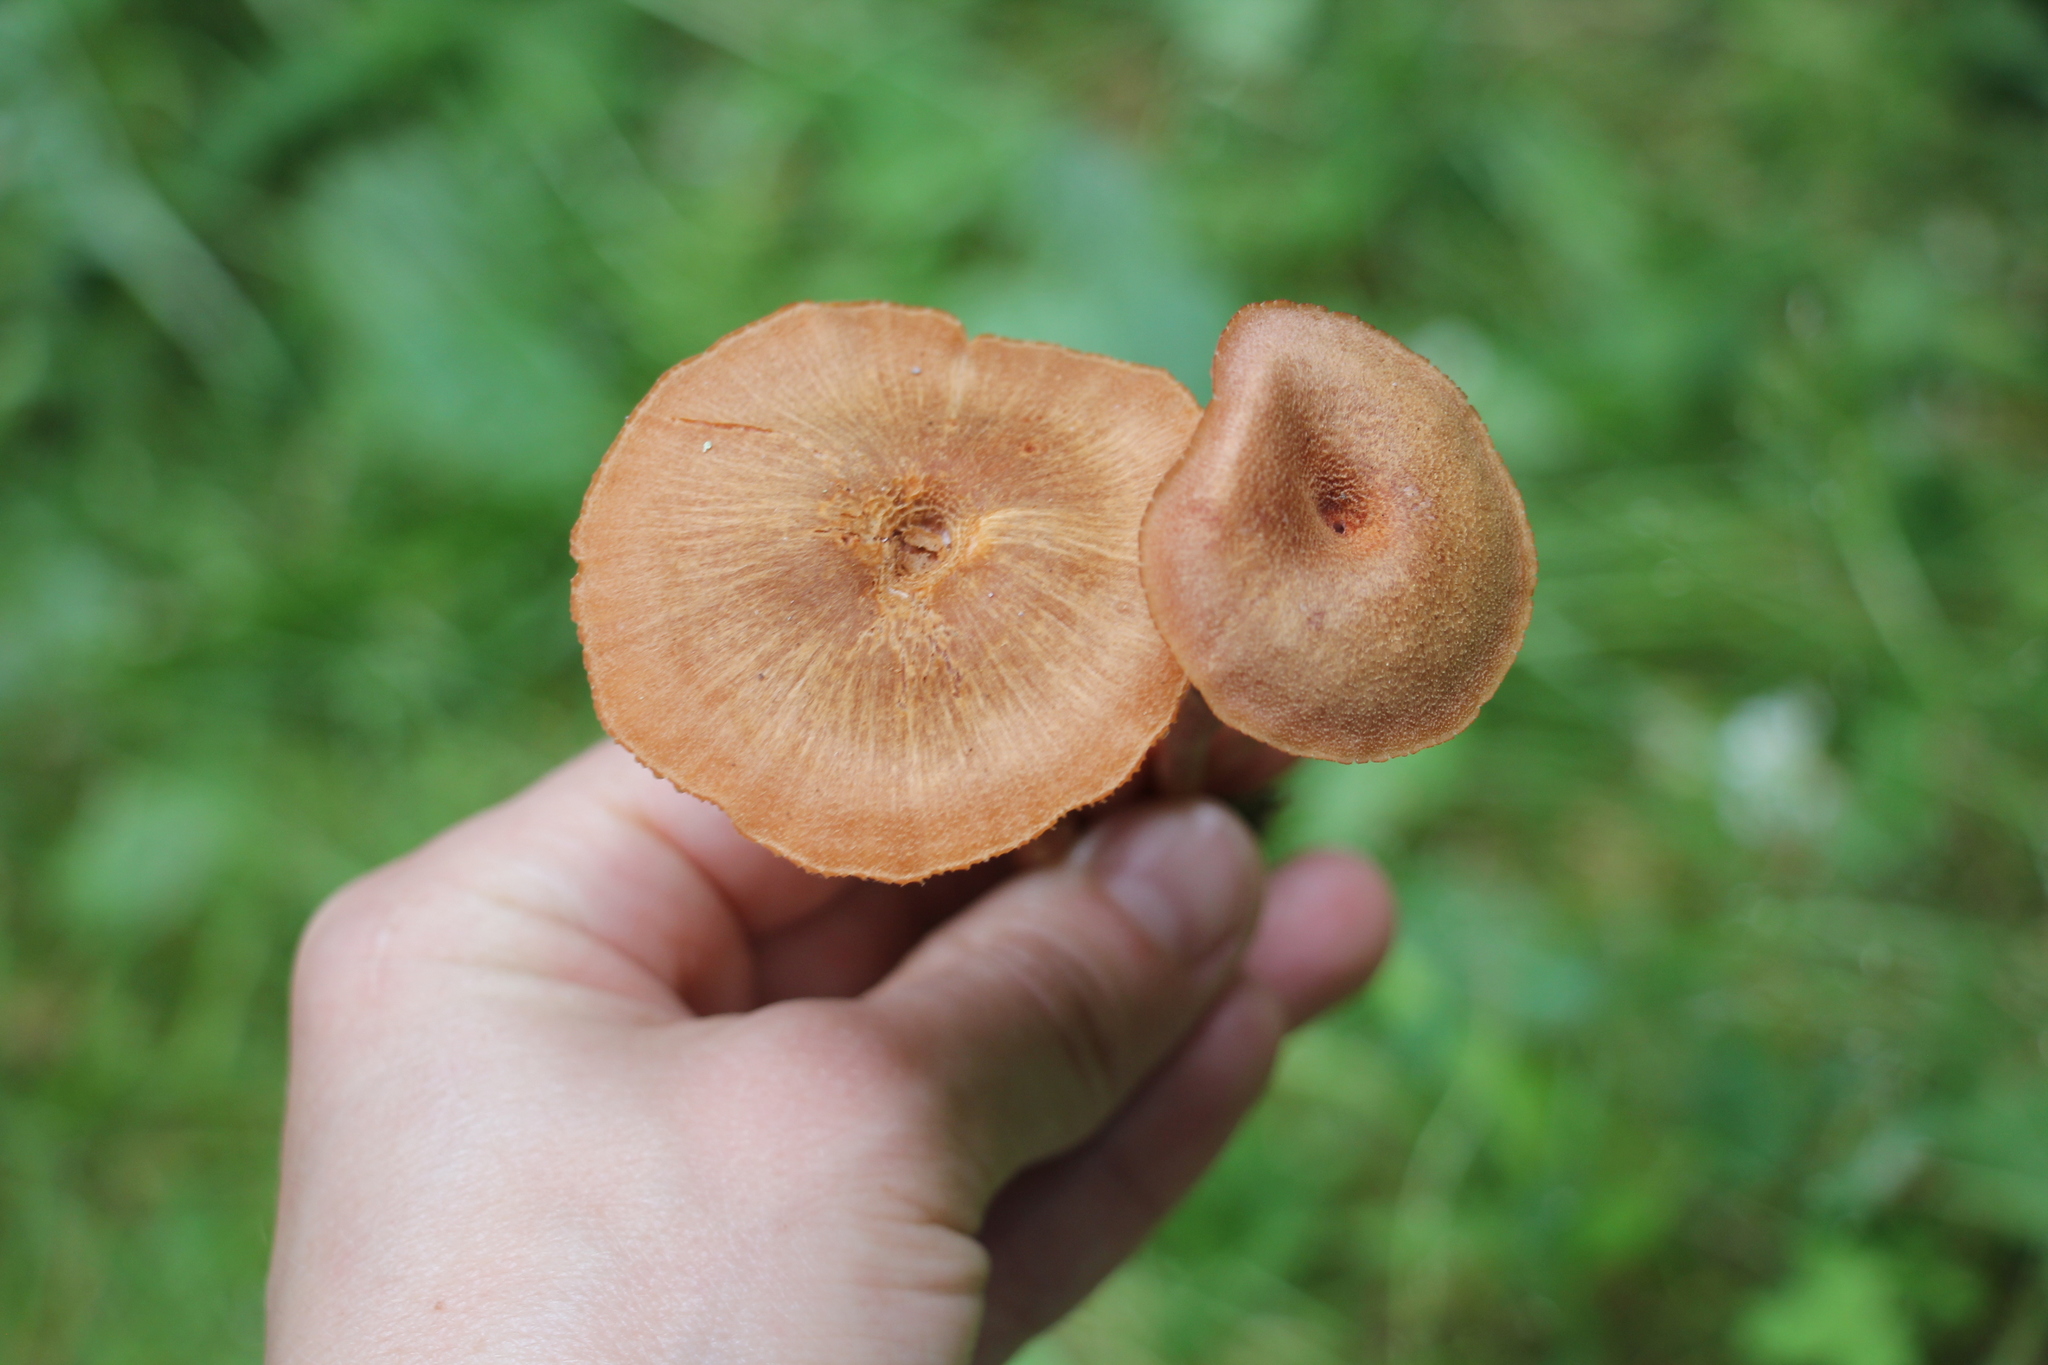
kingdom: Fungi
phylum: Basidiomycota
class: Agaricomycetes
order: Agaricales
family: Hydnangiaceae
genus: Laccaria
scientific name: Laccaria proxima
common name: Scurfy deceiver
